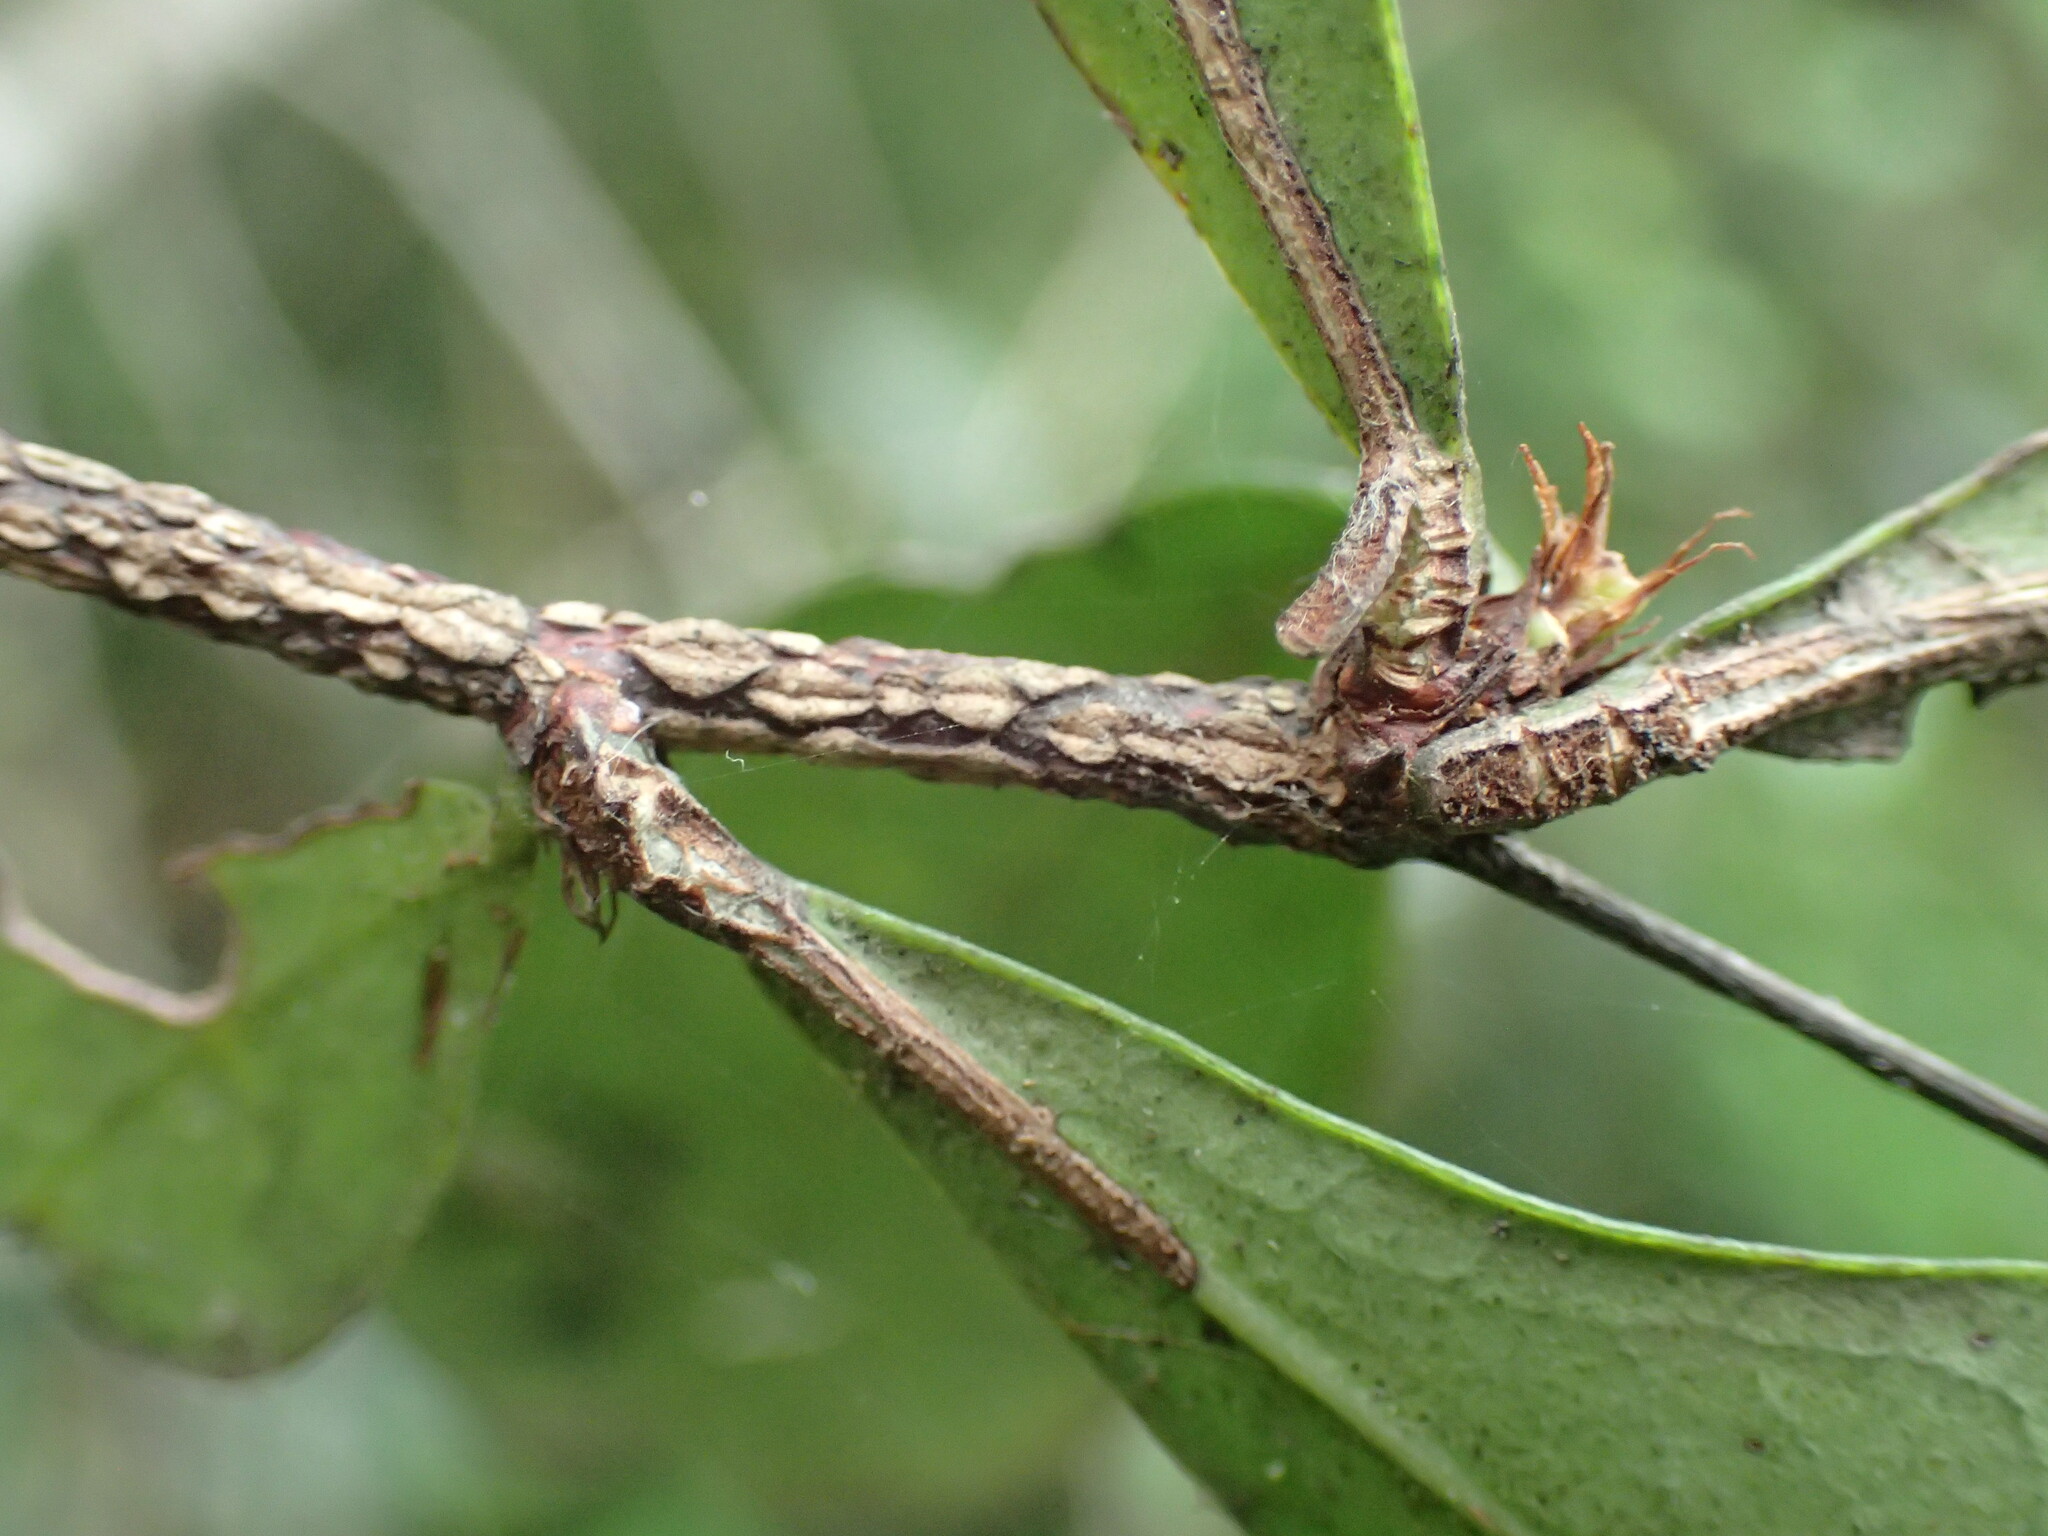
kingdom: Plantae
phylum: Tracheophyta
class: Magnoliopsida
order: Celastrales
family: Celastraceae
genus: Putterlickia
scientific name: Putterlickia verrucosa
